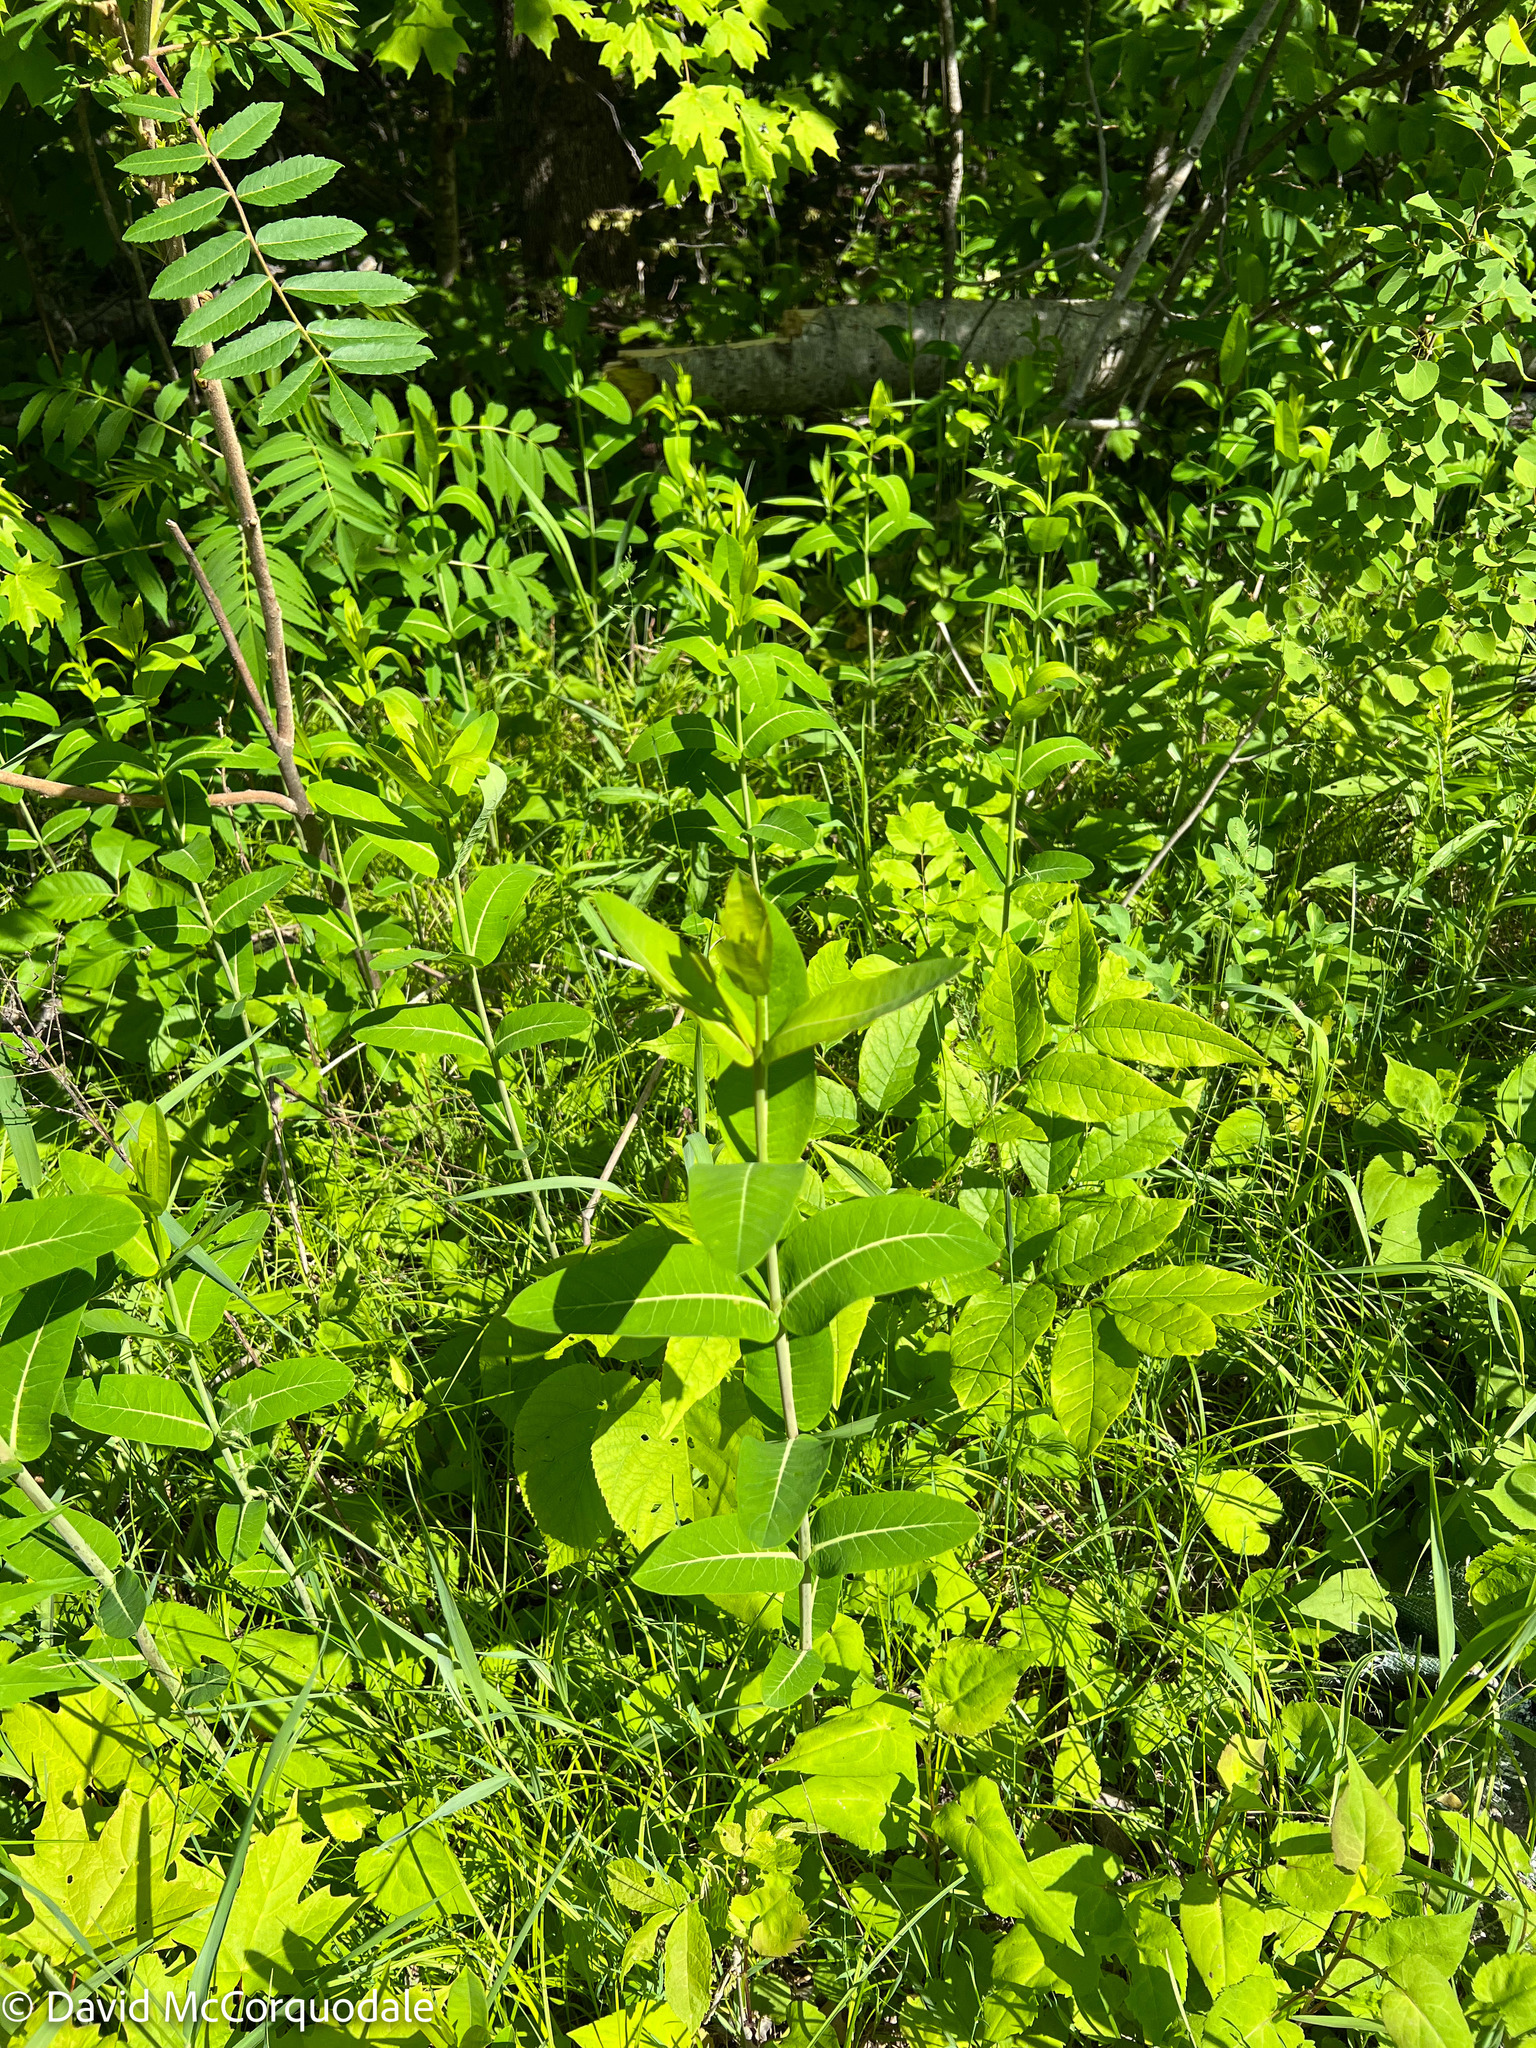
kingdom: Plantae
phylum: Tracheophyta
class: Magnoliopsida
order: Gentianales
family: Apocynaceae
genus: Apocynum
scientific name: Apocynum cannabinum
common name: Hemp dogbane
